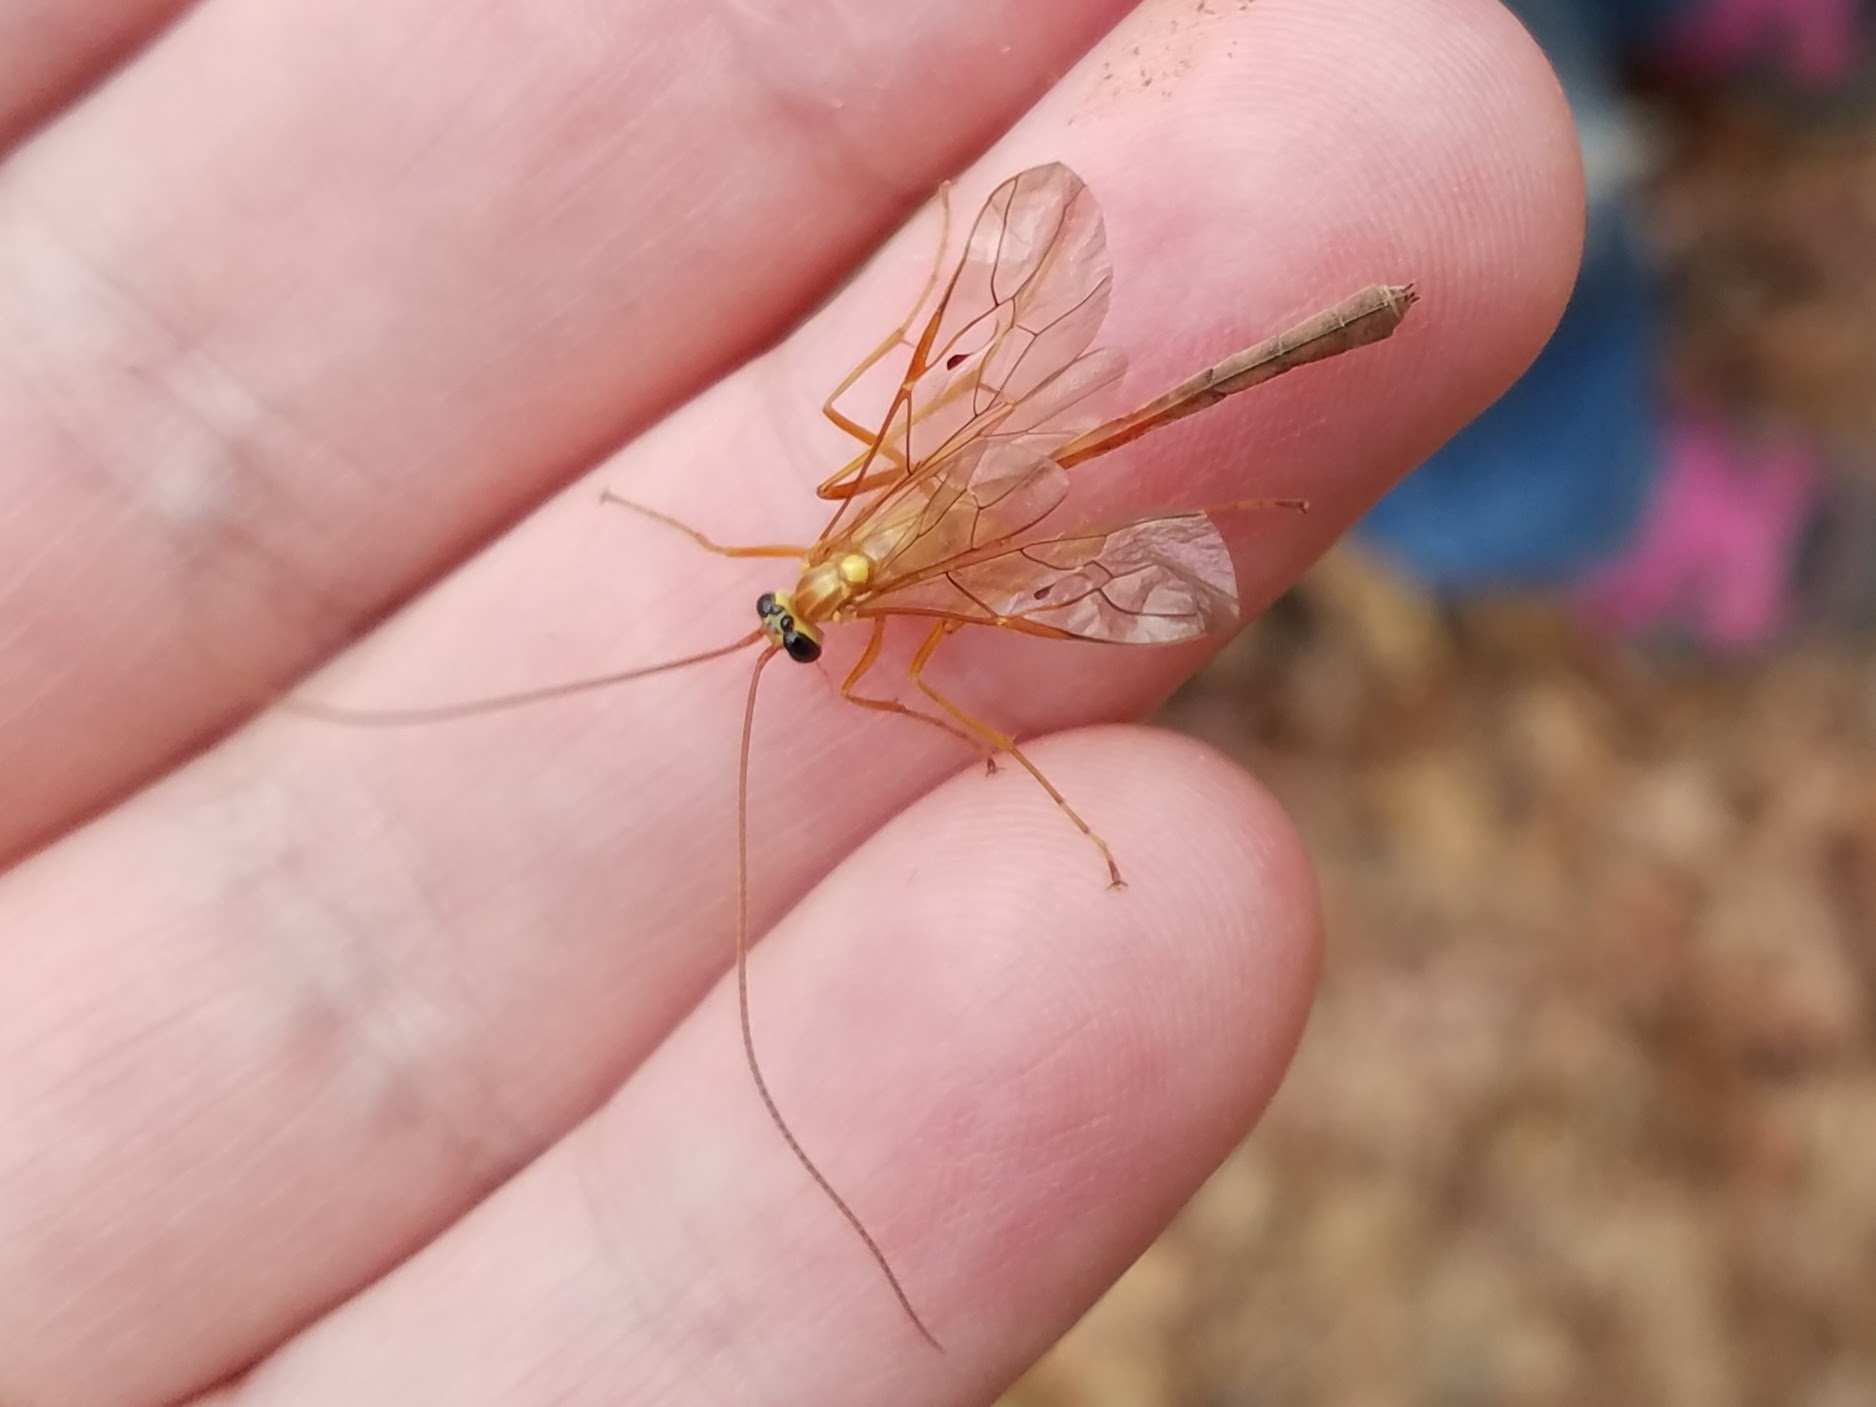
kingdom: Animalia
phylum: Arthropoda
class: Insecta
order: Hymenoptera
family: Ichneumonidae
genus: Enicospilus
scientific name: Enicospilus guatemalensis
